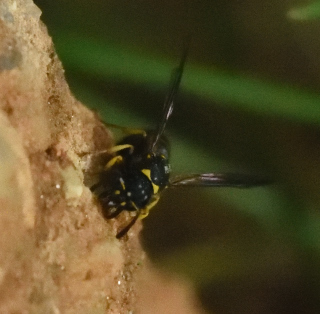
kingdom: Animalia
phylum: Arthropoda
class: Insecta
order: Hymenoptera
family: Vespidae
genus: Ancistrocerus
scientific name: Ancistrocerus
